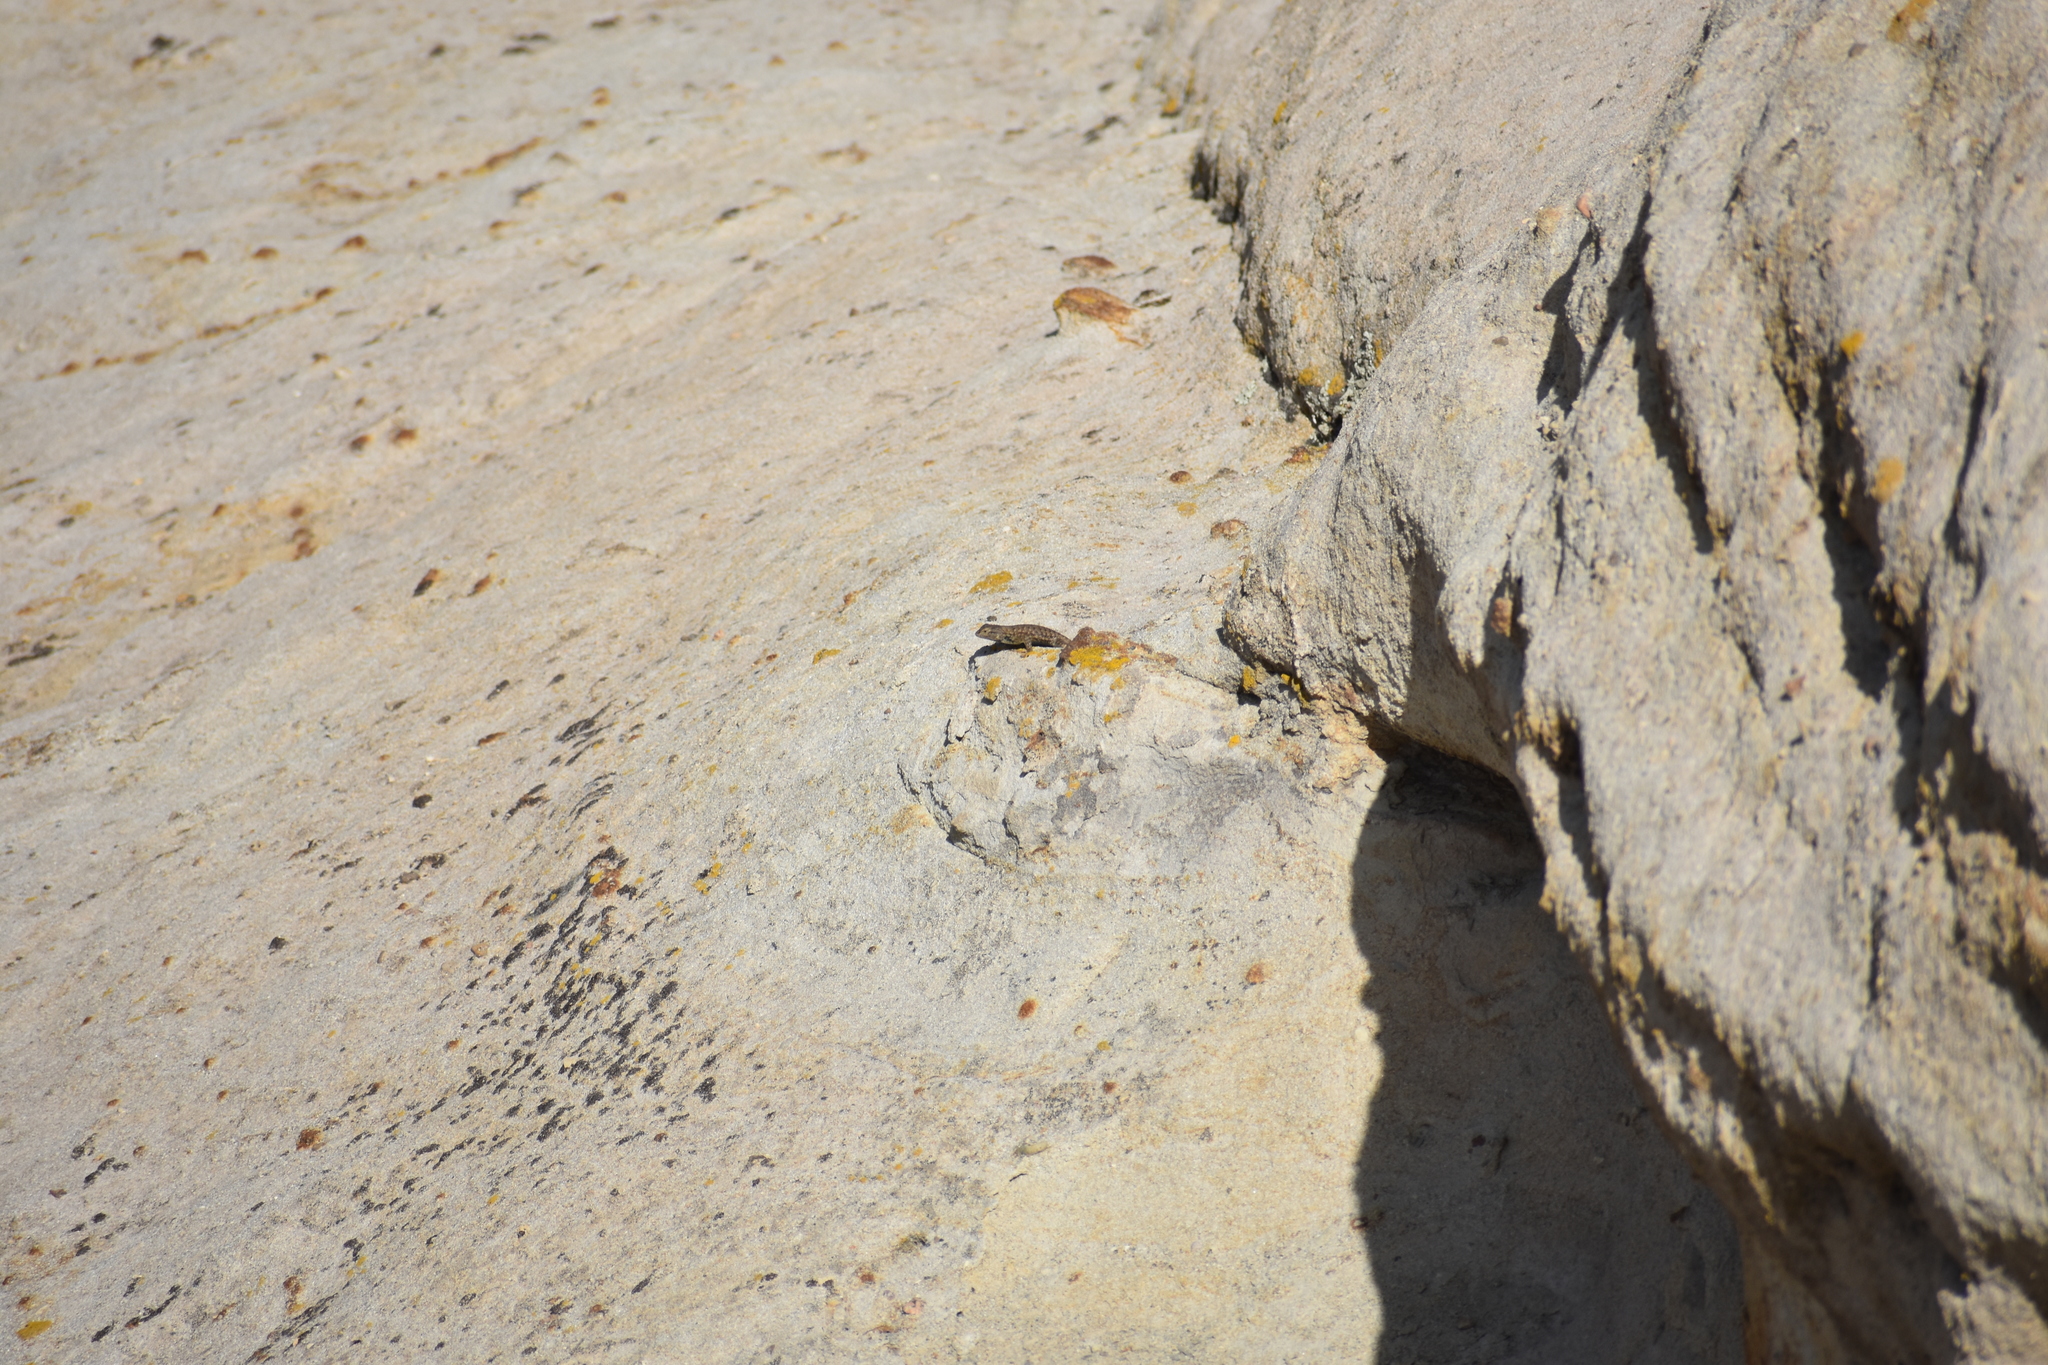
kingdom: Animalia
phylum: Chordata
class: Squamata
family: Phrynosomatidae
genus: Sceloporus
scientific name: Sceloporus tristichus
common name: Plateau fence lizard
